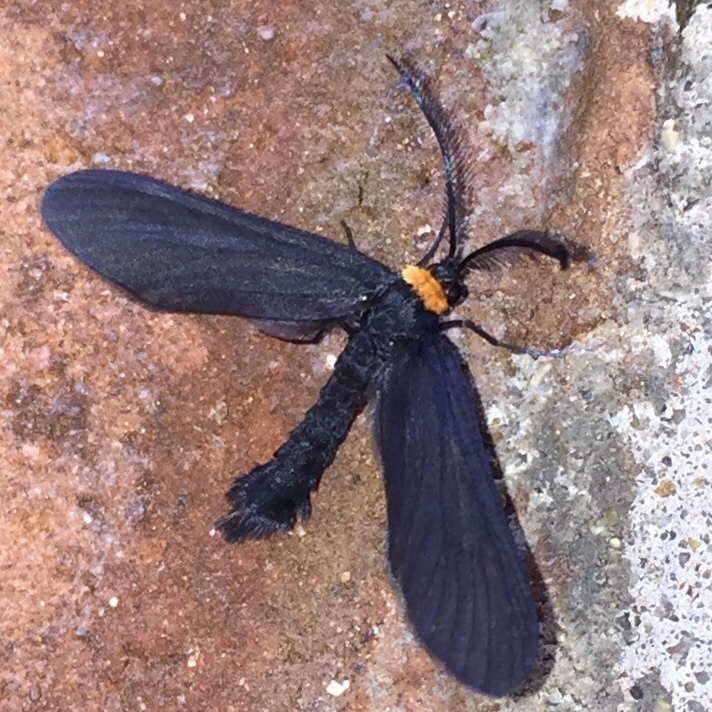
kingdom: Animalia
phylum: Arthropoda
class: Insecta
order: Lepidoptera
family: Zygaenidae
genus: Harrisina
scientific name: Harrisina americana
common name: Grapeleaf skeletonizer moth
